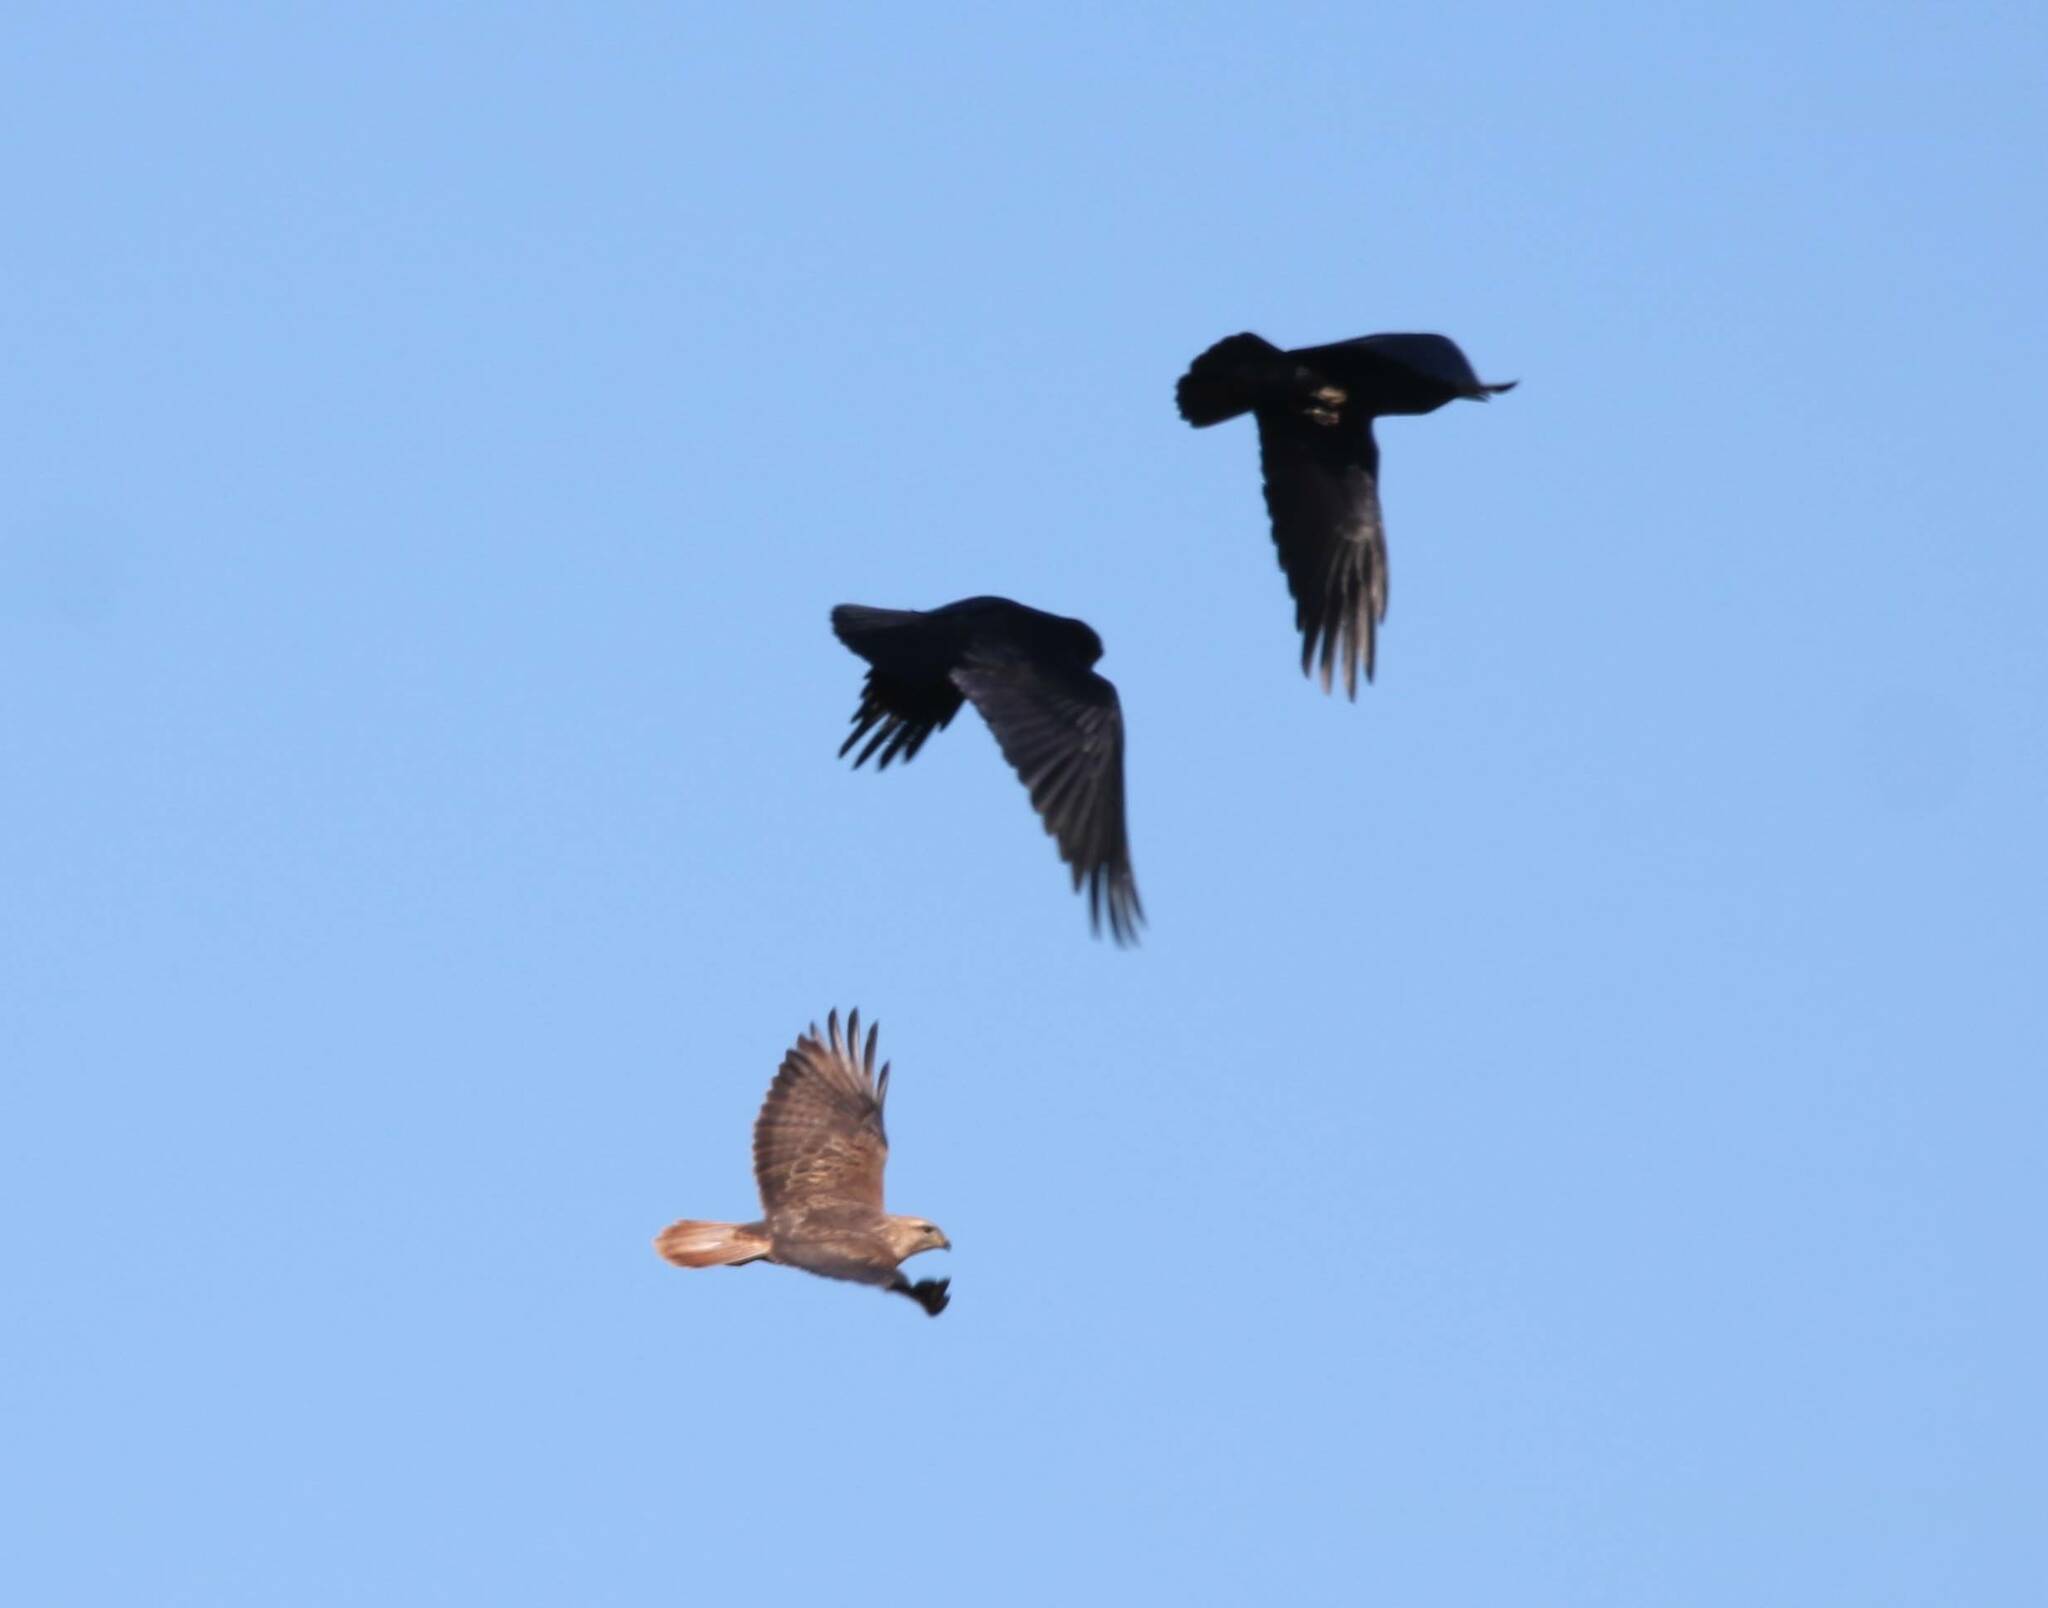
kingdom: Animalia
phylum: Chordata
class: Aves
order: Accipitriformes
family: Accipitridae
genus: Buteo
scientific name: Buteo rufinus
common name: Long-legged buzzard
